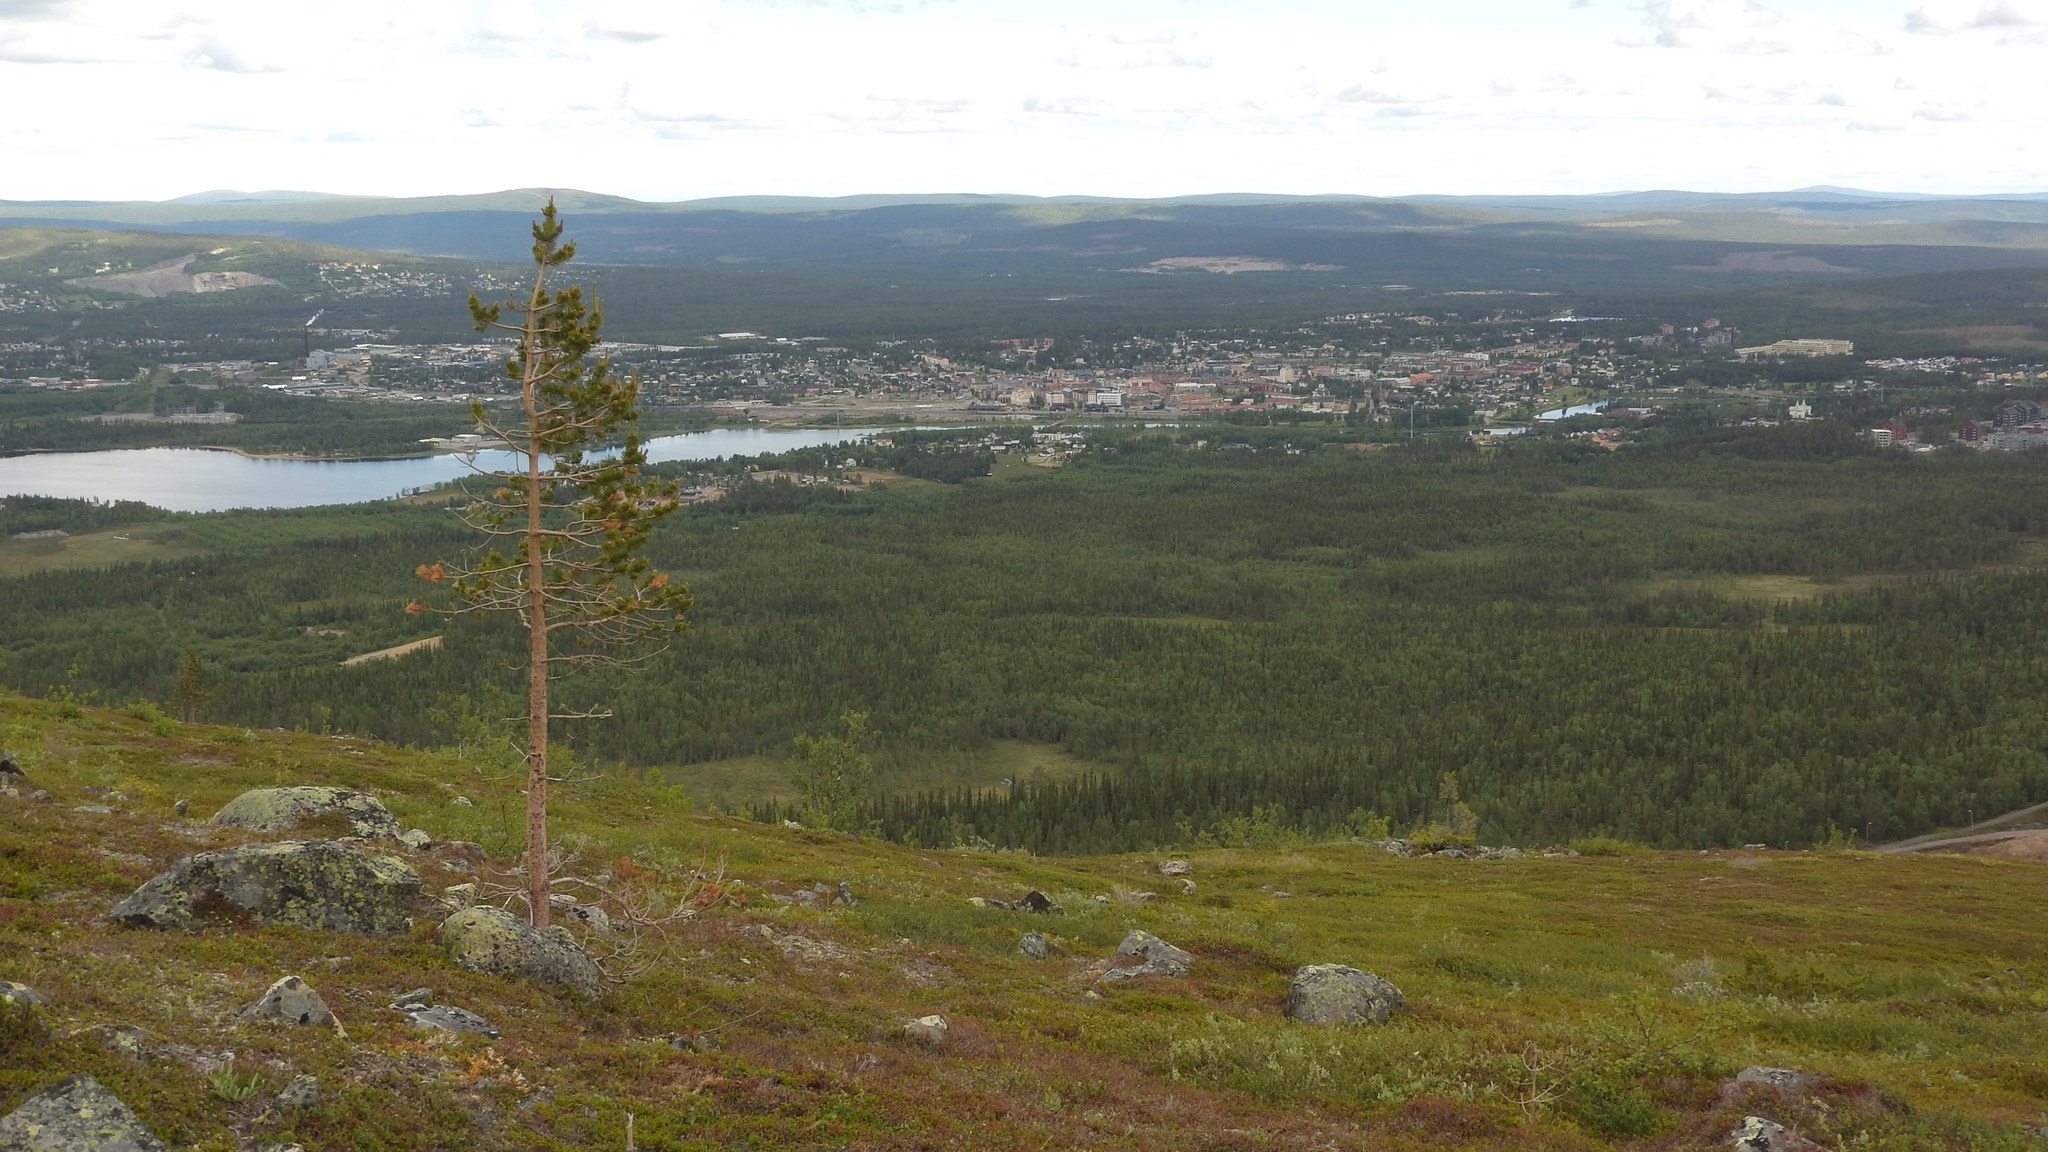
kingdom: Plantae
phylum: Tracheophyta
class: Pinopsida
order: Pinales
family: Pinaceae
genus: Pinus
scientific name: Pinus sylvestris
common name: Scots pine
